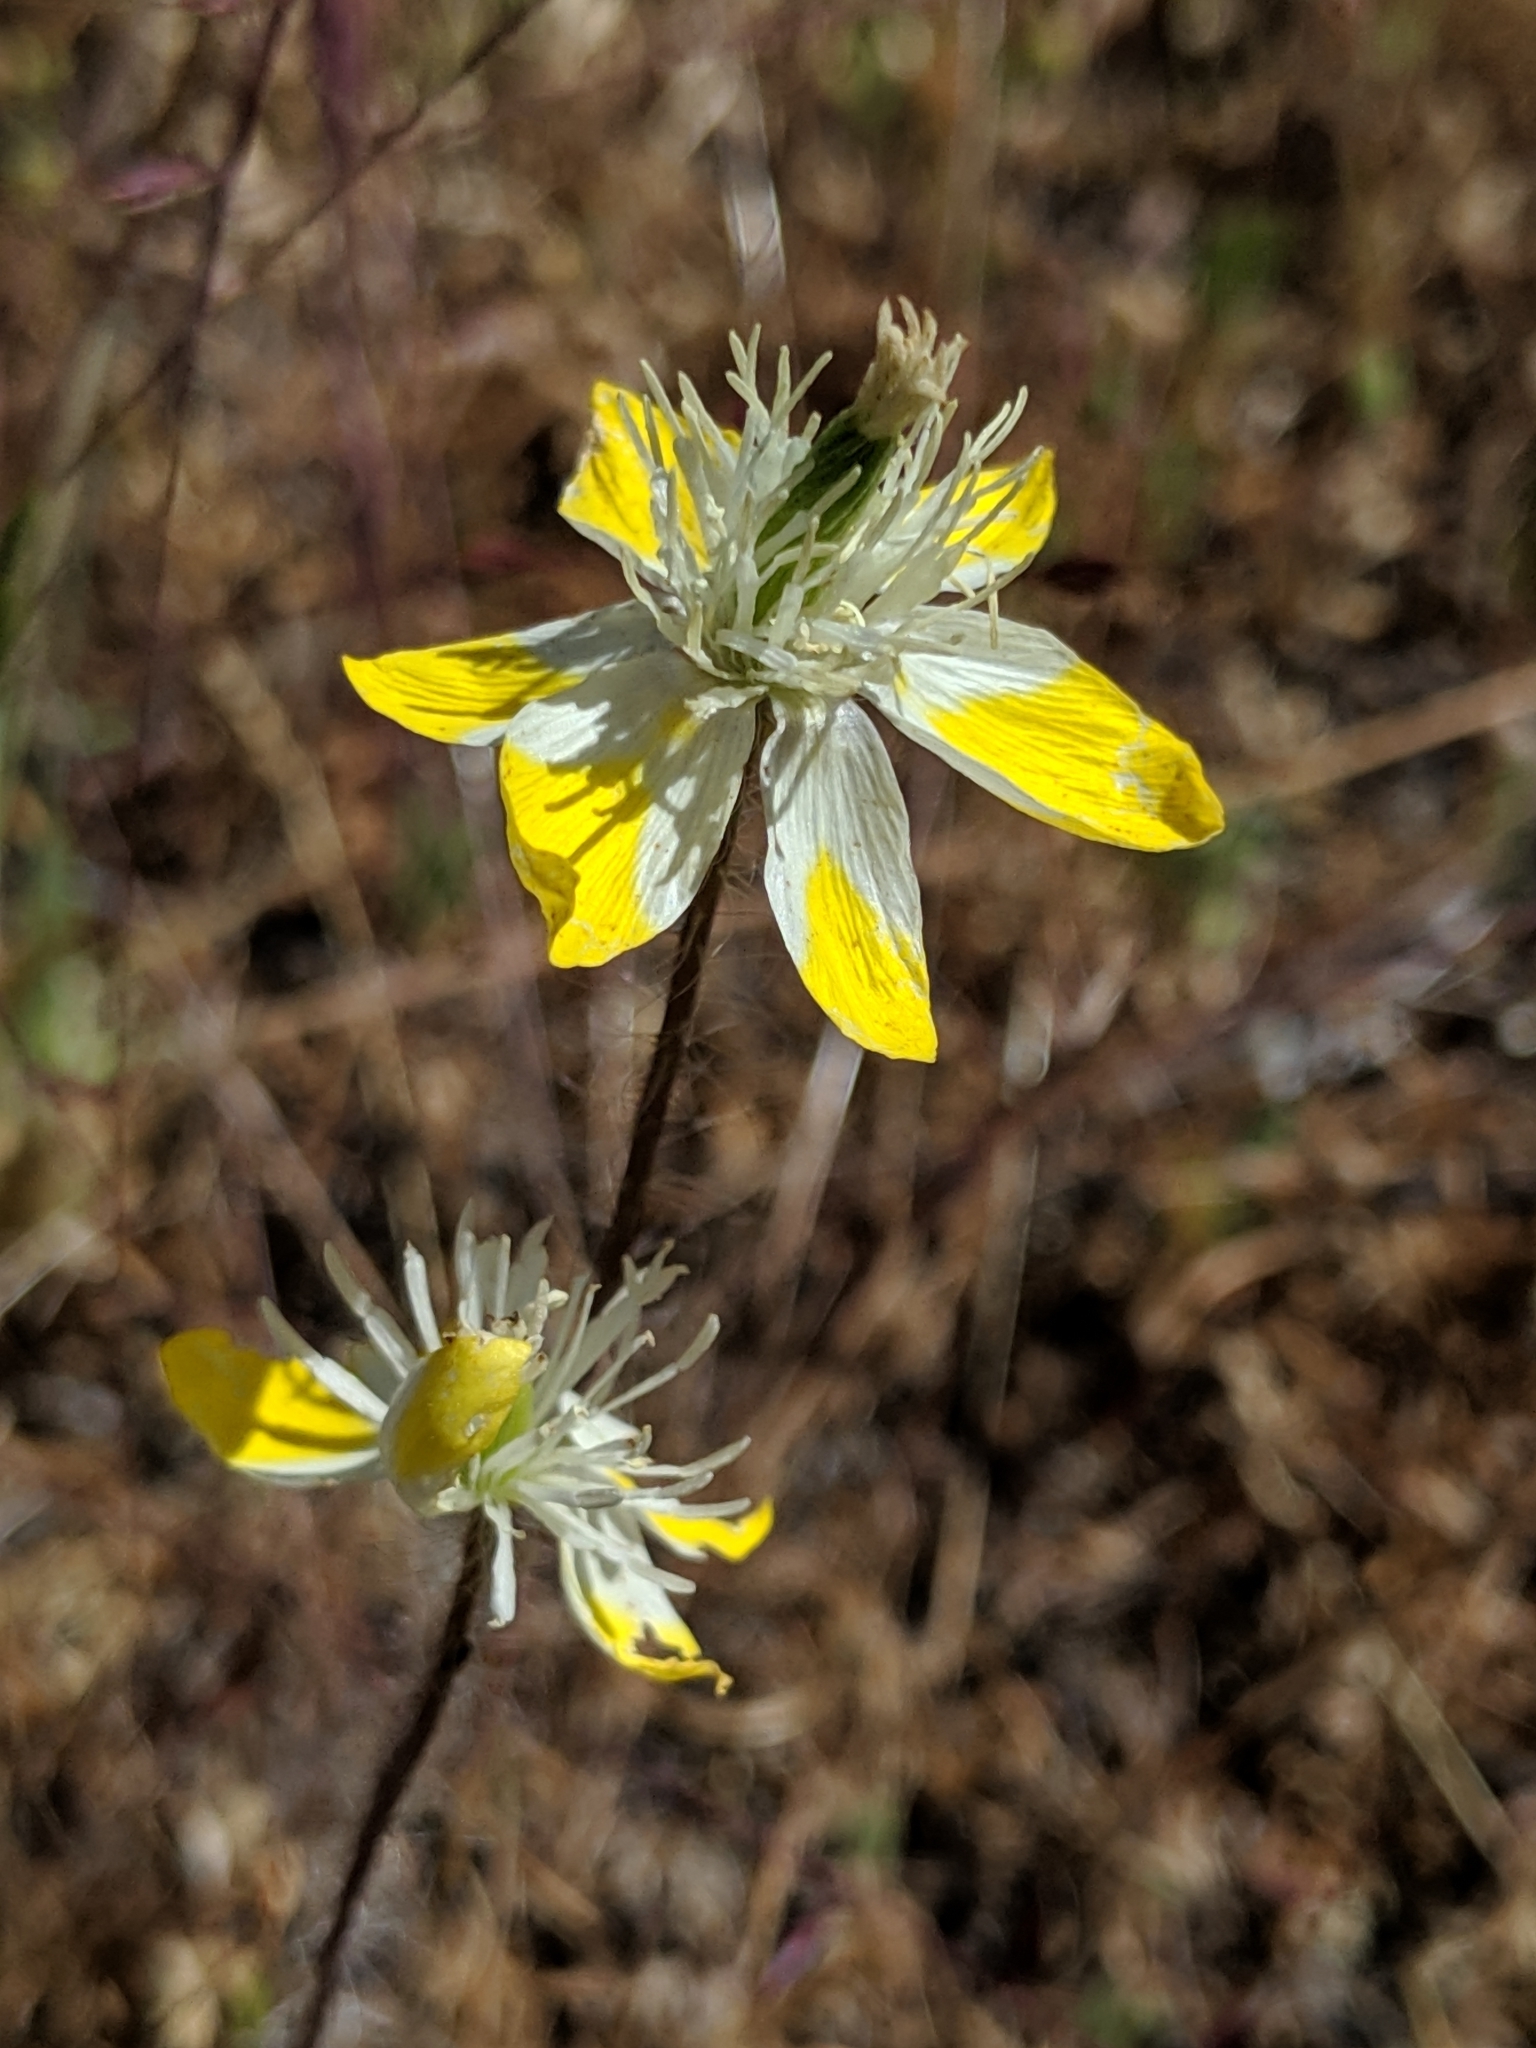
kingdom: Plantae
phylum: Tracheophyta
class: Magnoliopsida
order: Ranunculales
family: Papaveraceae
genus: Platystemon
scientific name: Platystemon californicus
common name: Cream-cups
